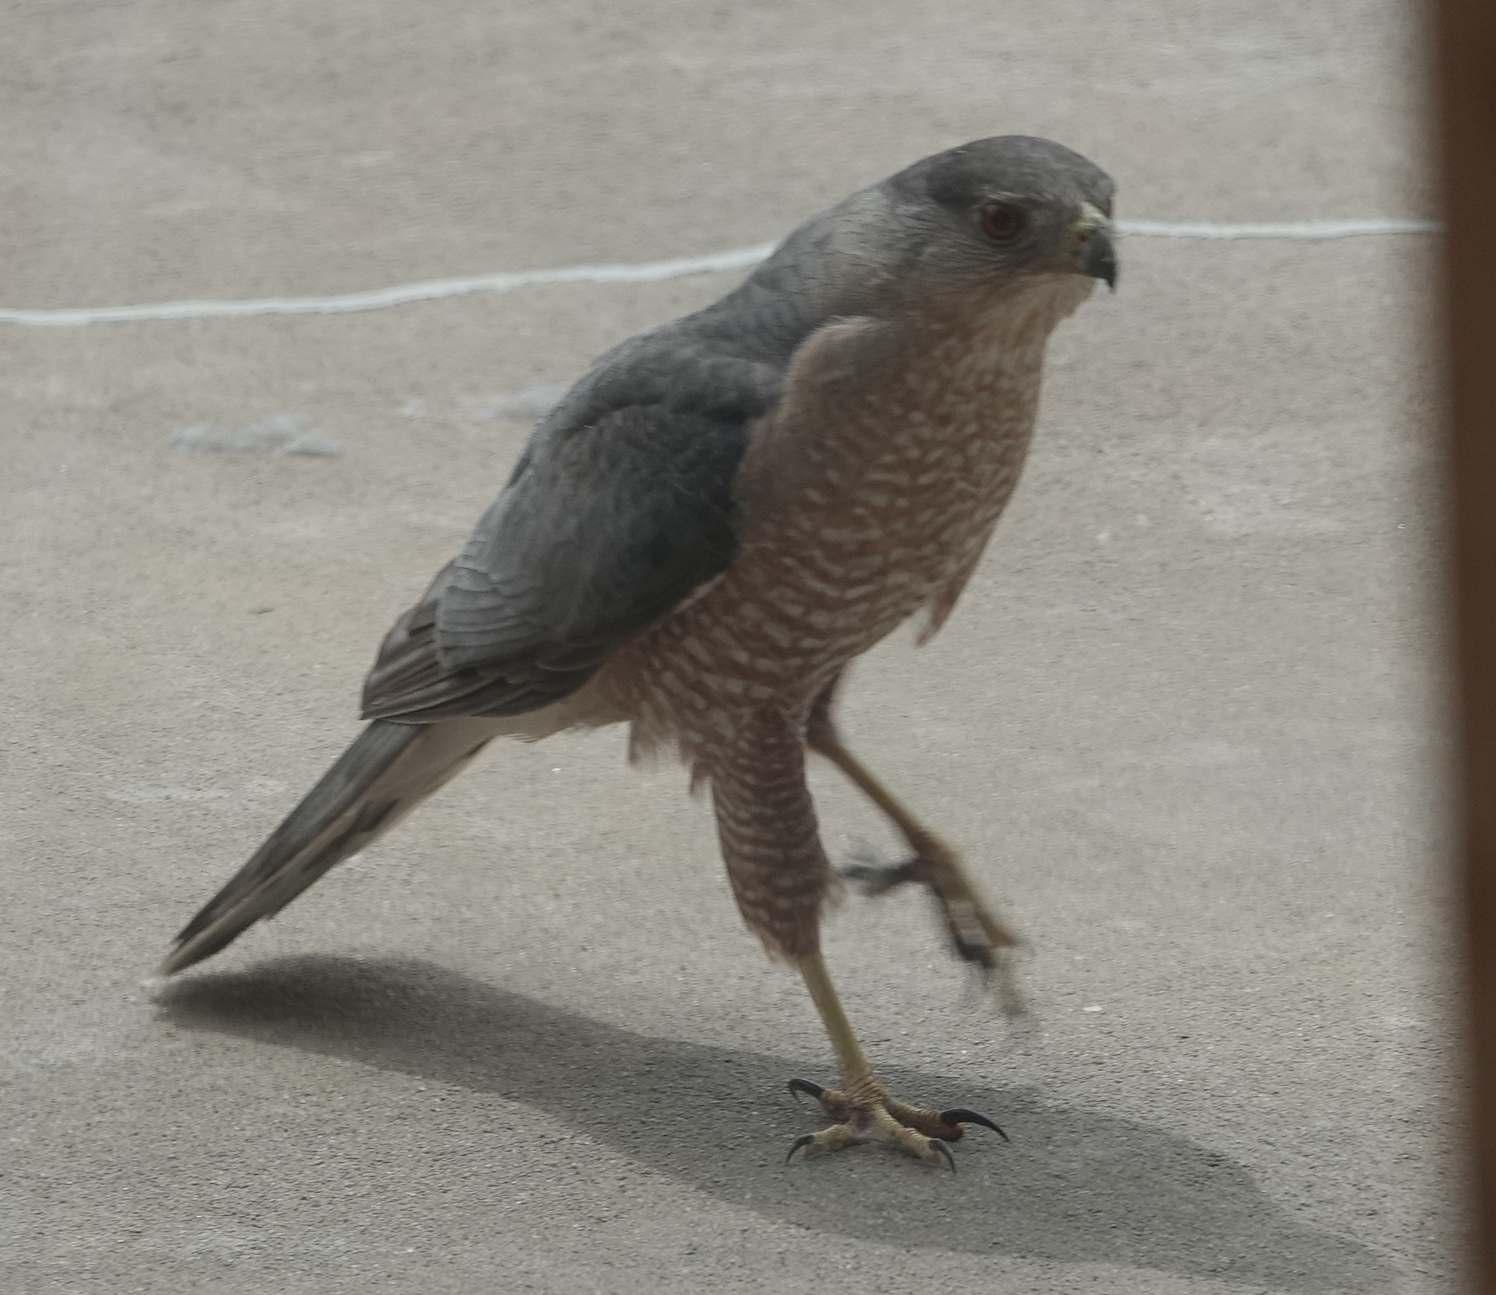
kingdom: Animalia
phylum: Chordata
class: Aves
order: Accipitriformes
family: Accipitridae
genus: Accipiter
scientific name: Accipiter cooperii
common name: Cooper's hawk
